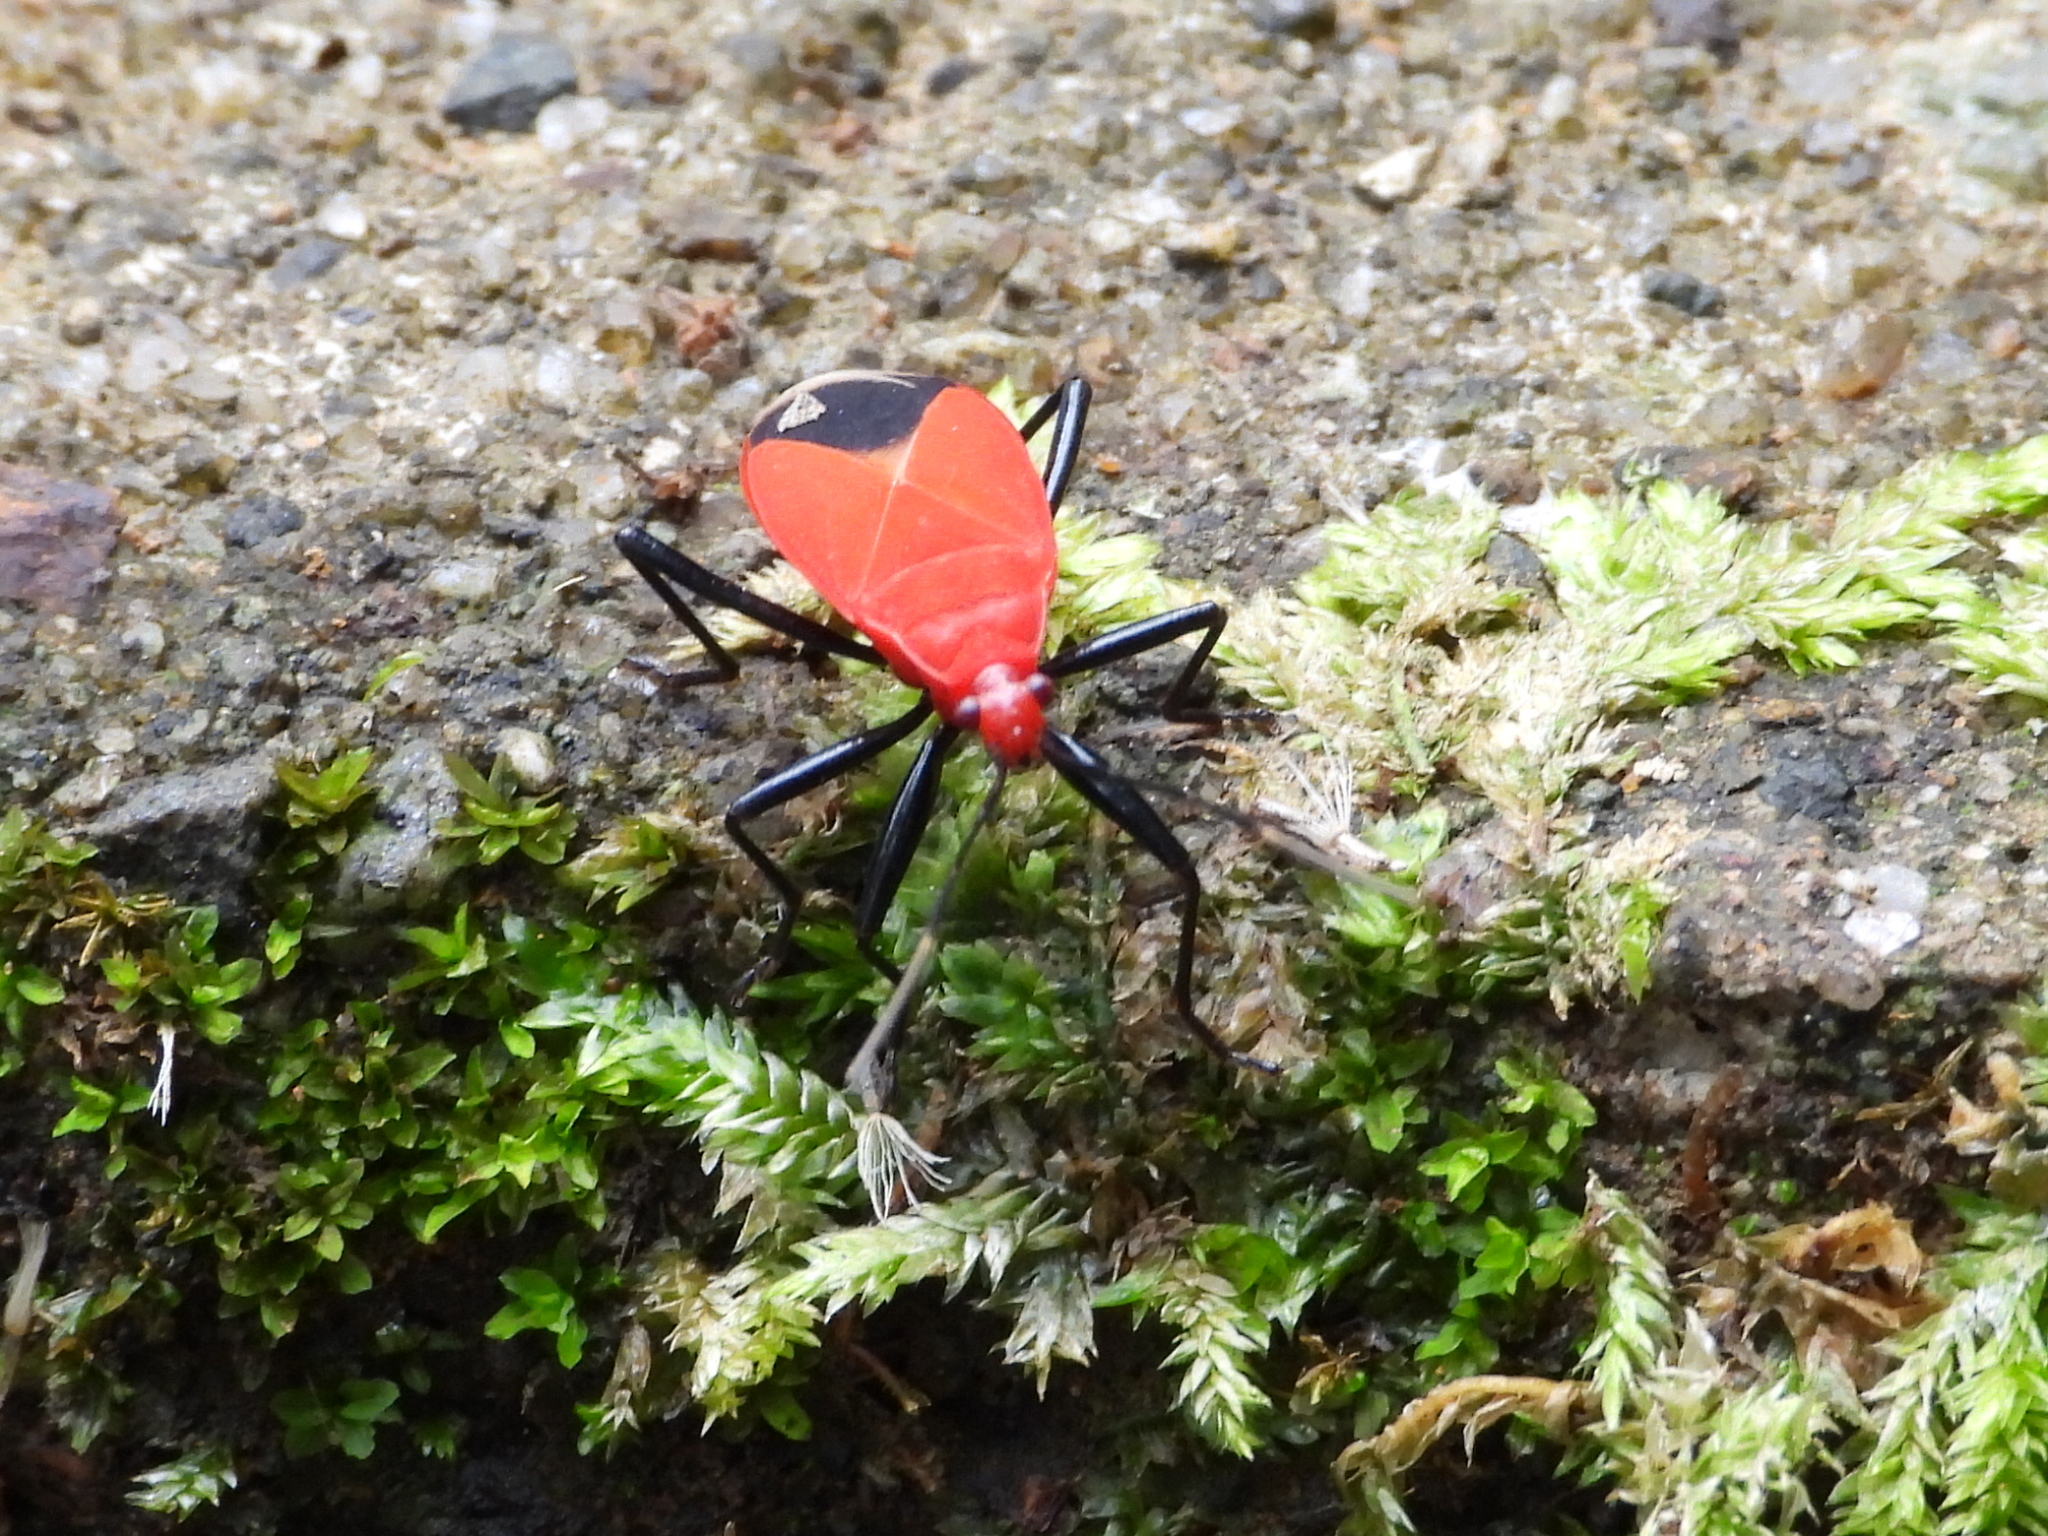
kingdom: Animalia
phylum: Arthropoda
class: Insecta
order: Hemiptera
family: Pyrrhocoridae
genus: Antilochus
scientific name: Antilochus
